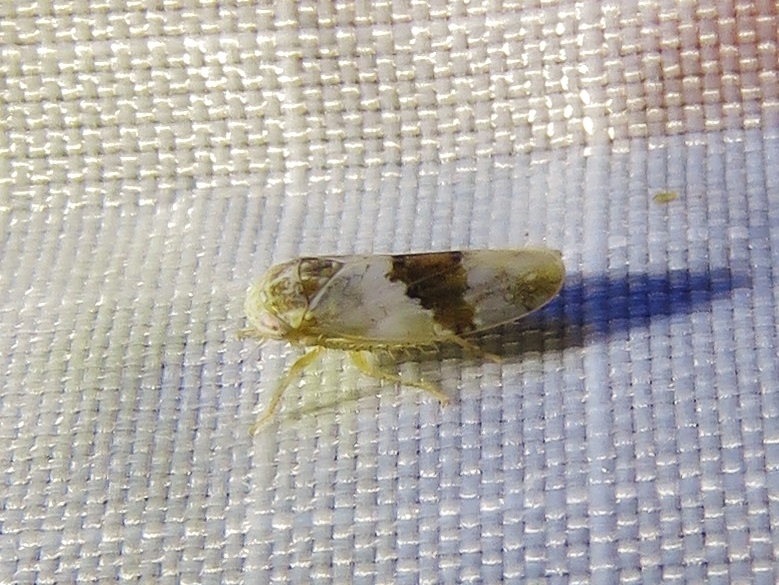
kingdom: Animalia
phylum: Arthropoda
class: Insecta
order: Hemiptera
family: Cicadellidae
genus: Norvellina
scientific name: Norvellina seminuda
